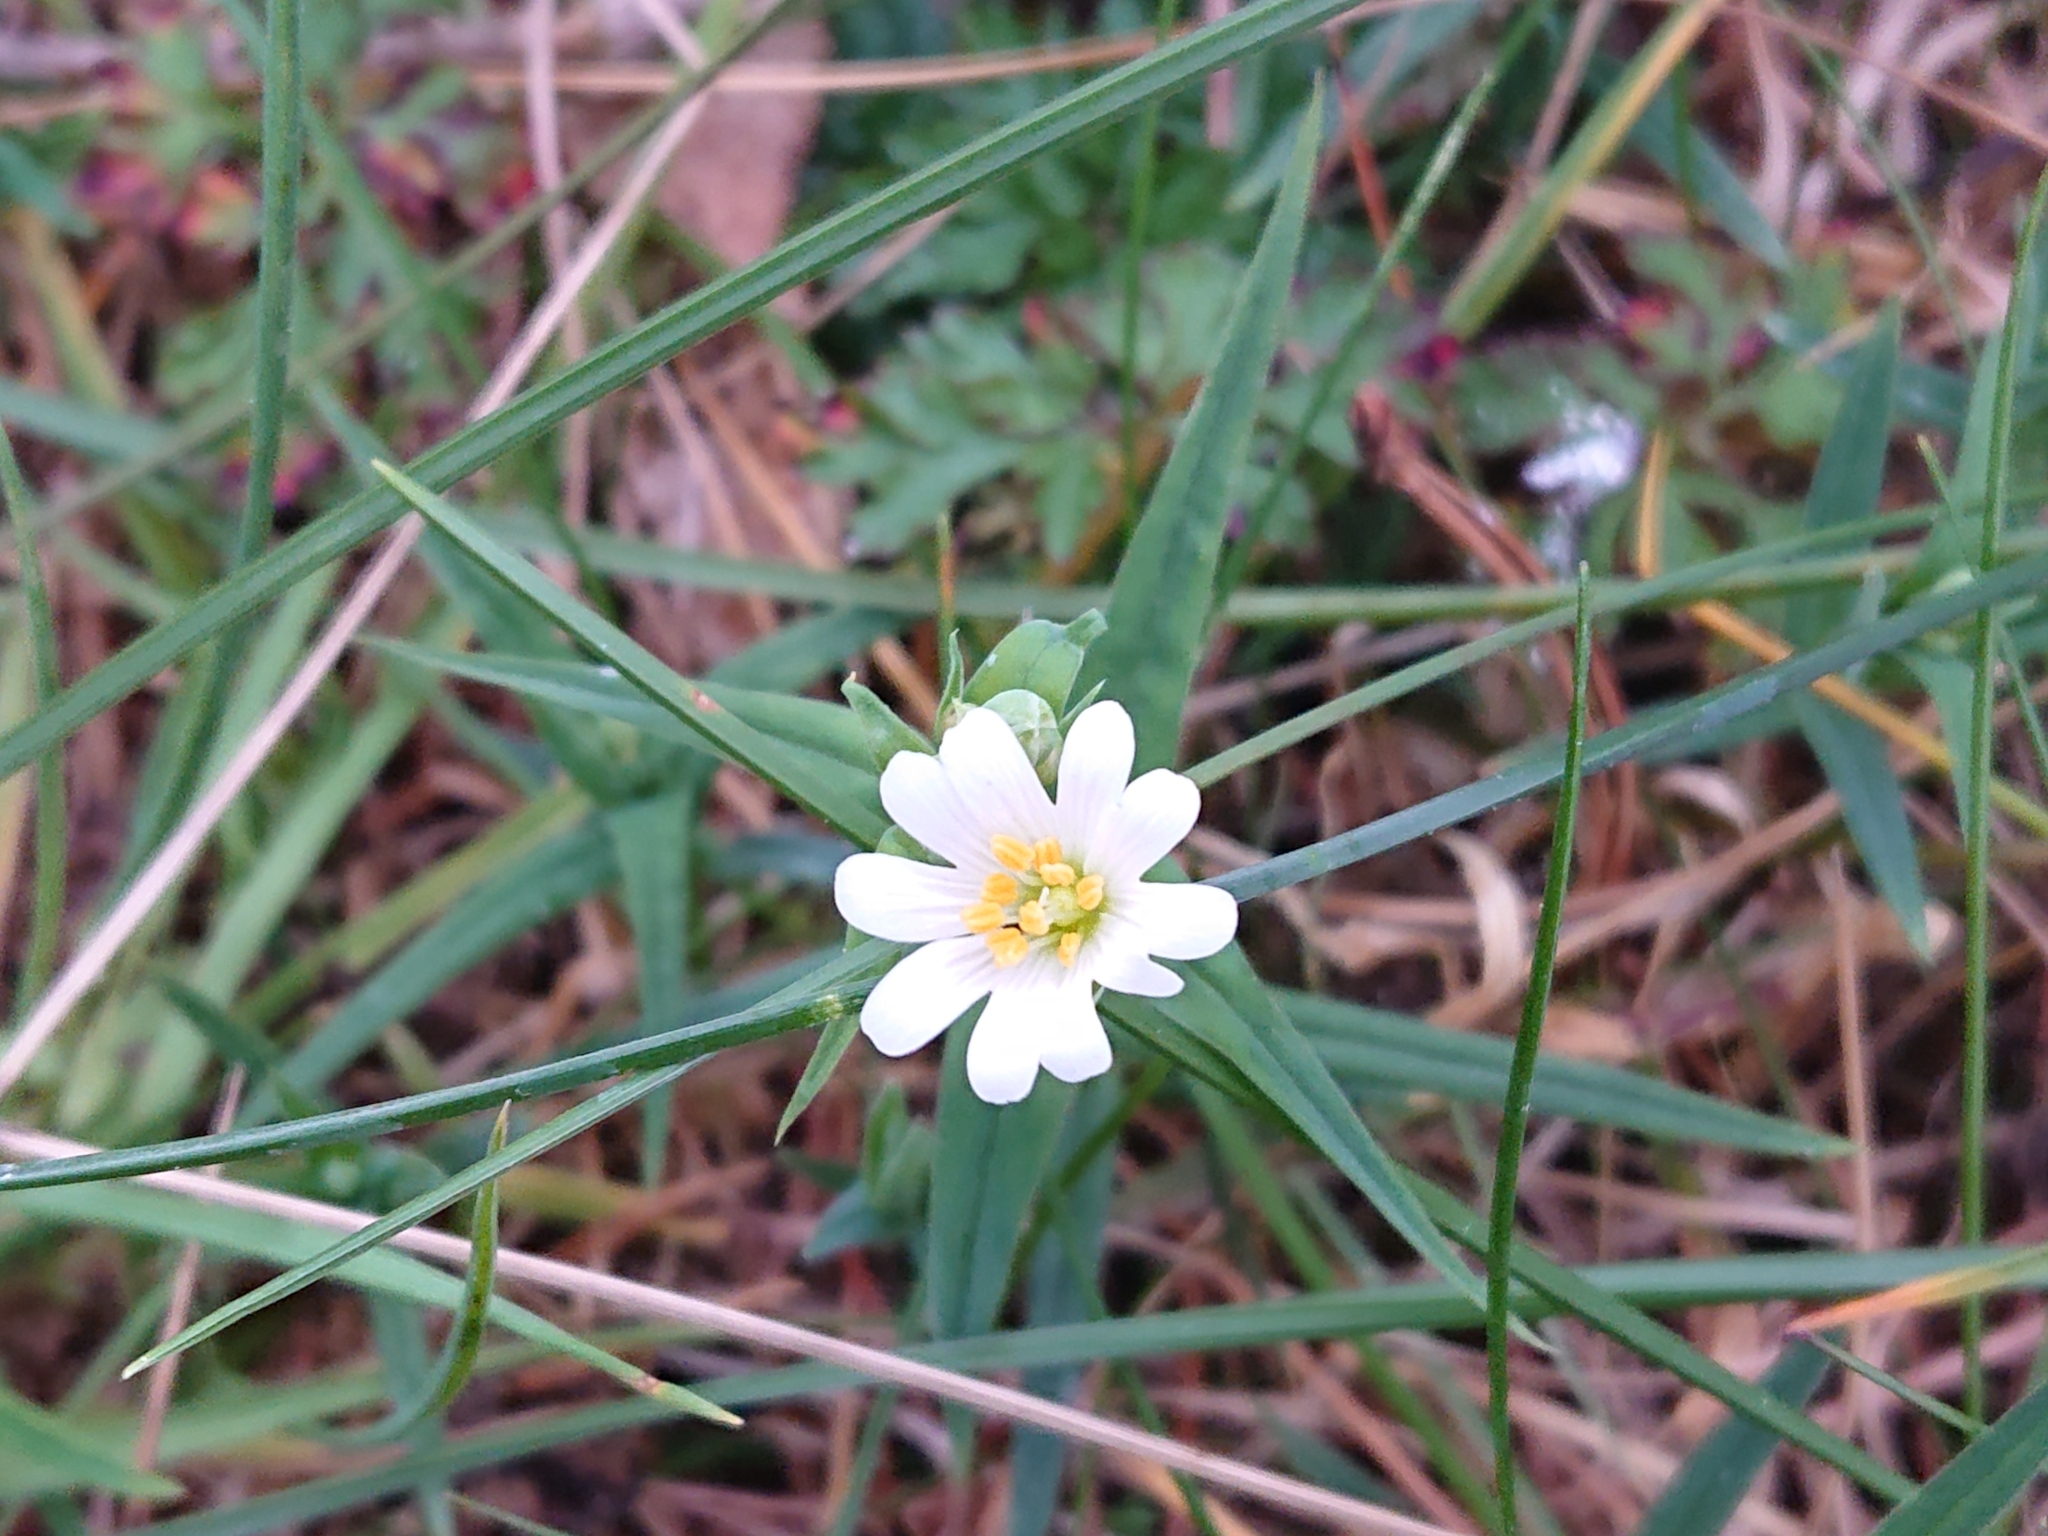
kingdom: Plantae
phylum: Tracheophyta
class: Magnoliopsida
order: Caryophyllales
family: Caryophyllaceae
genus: Rabelera
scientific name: Rabelera holostea
